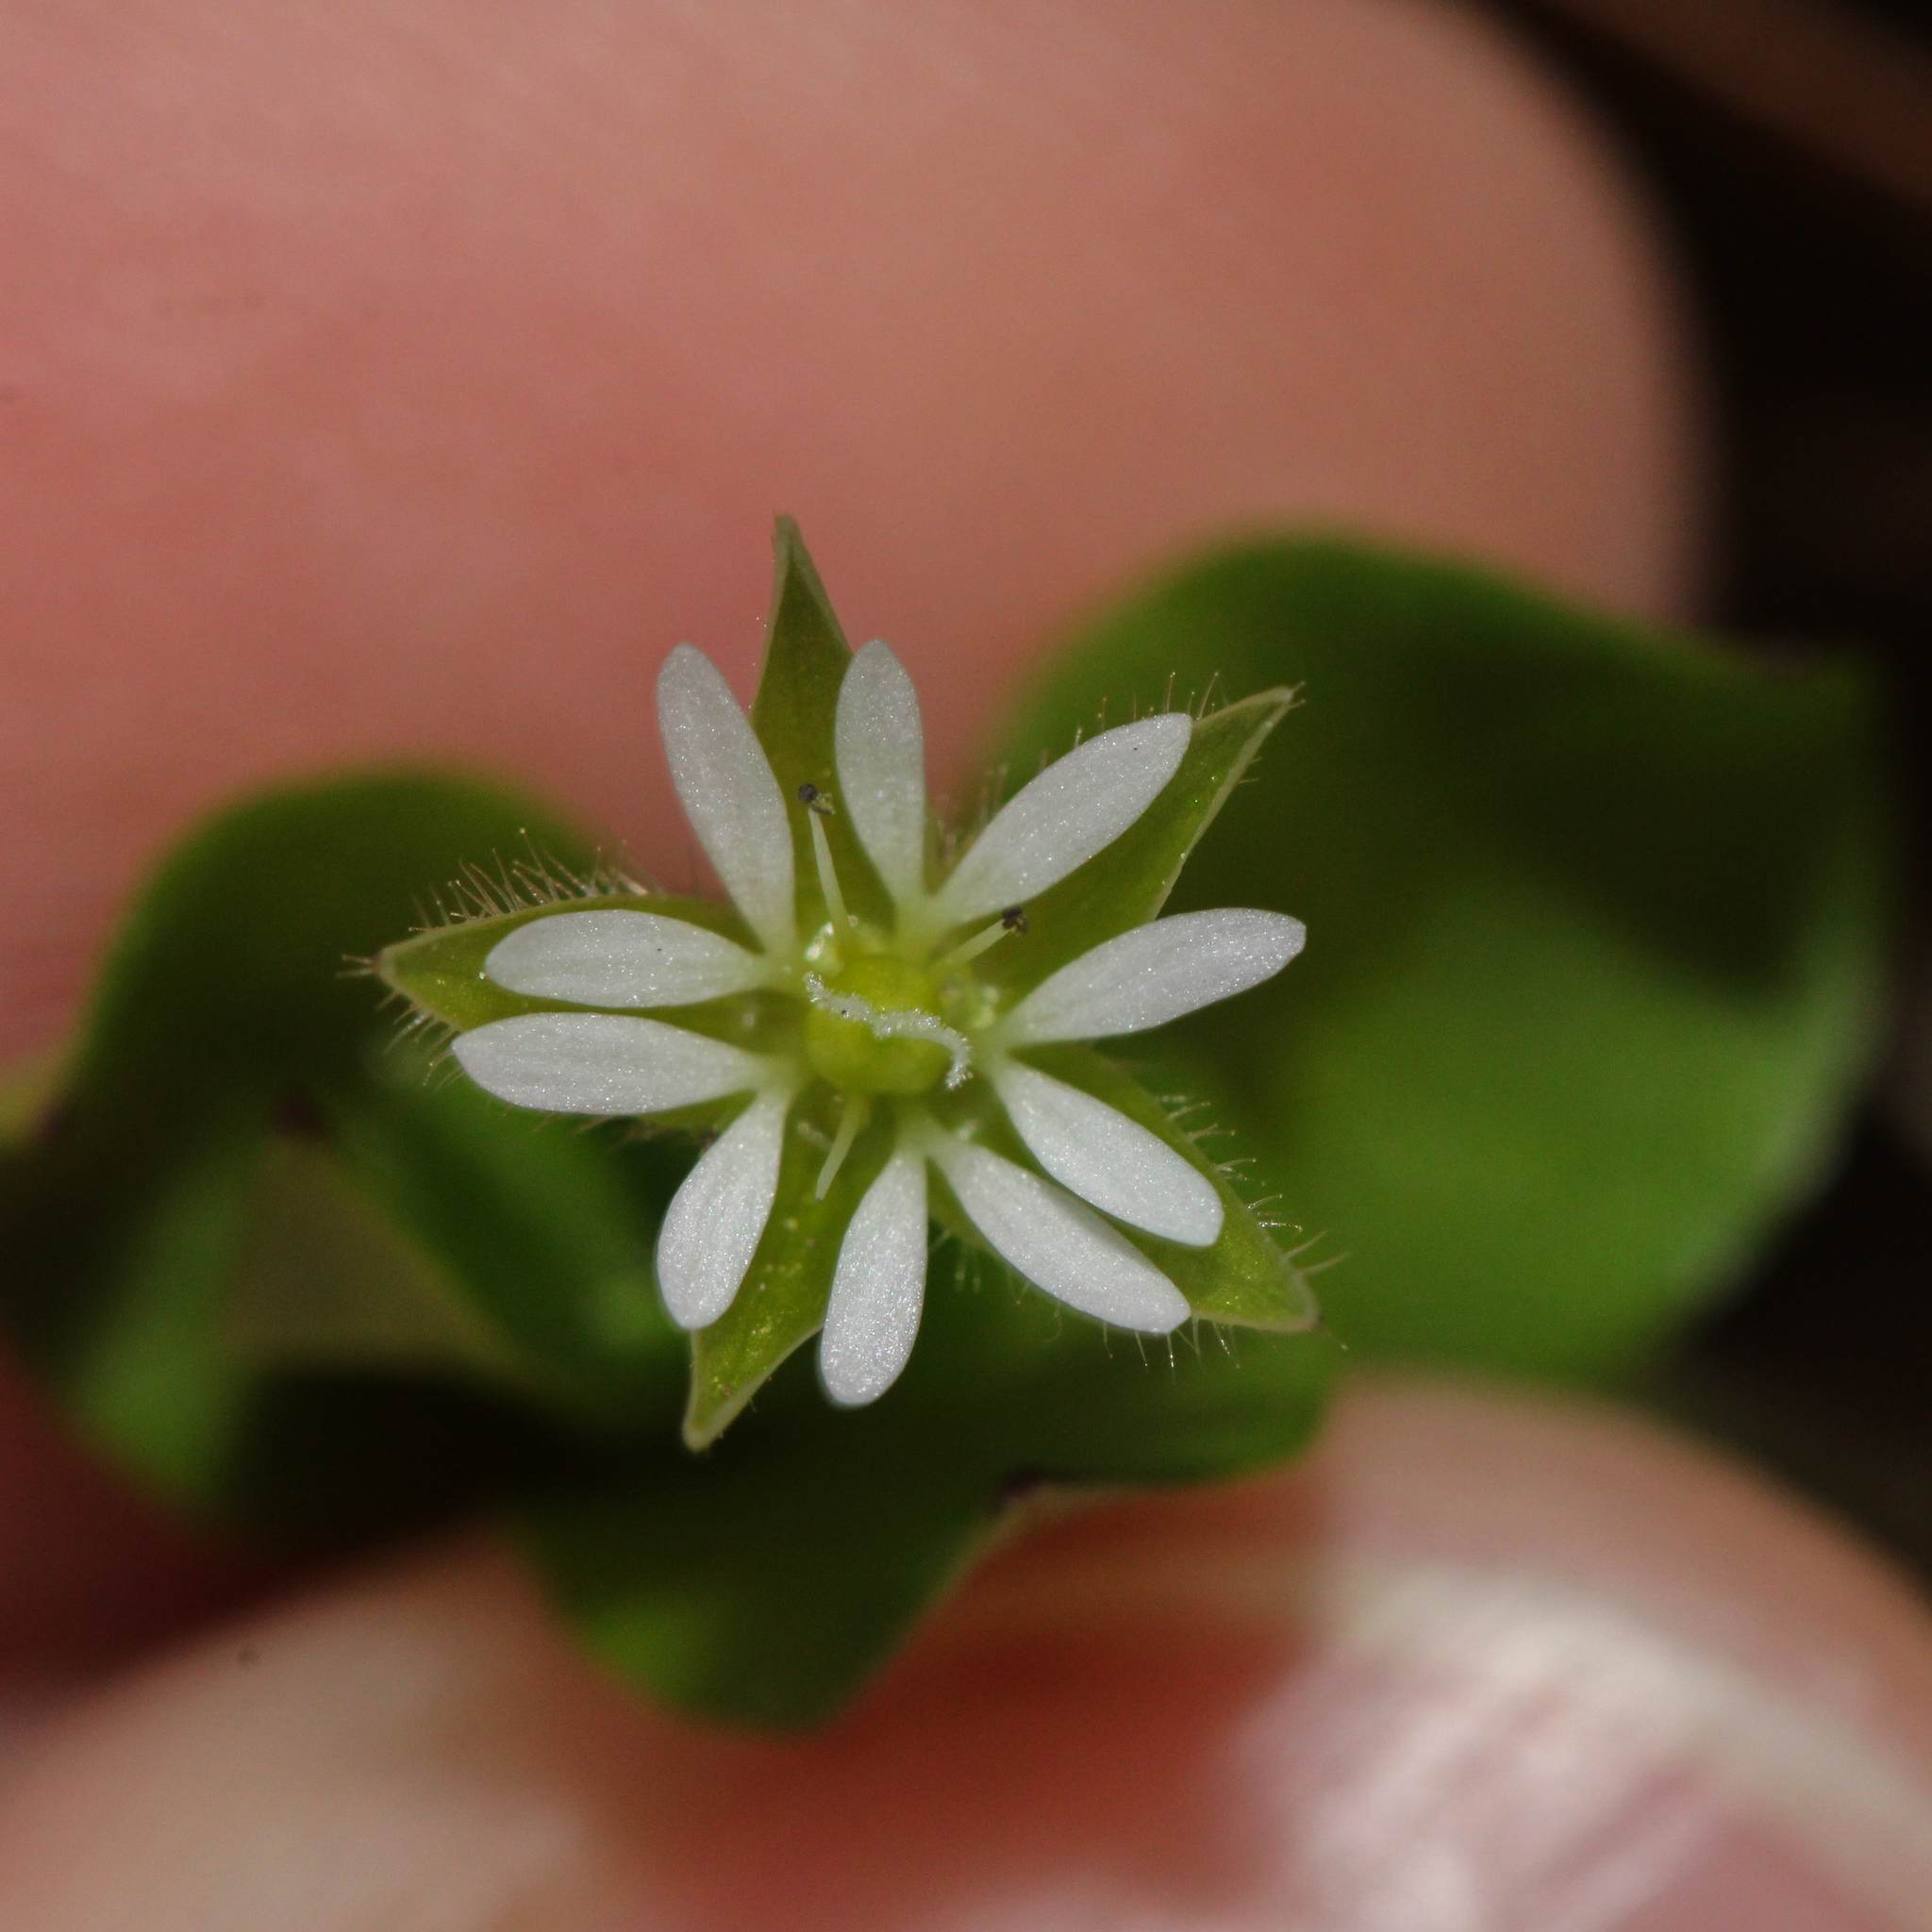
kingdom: Plantae
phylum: Tracheophyta
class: Magnoliopsida
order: Caryophyllales
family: Caryophyllaceae
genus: Stellaria
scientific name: Stellaria media
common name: Common chickweed
